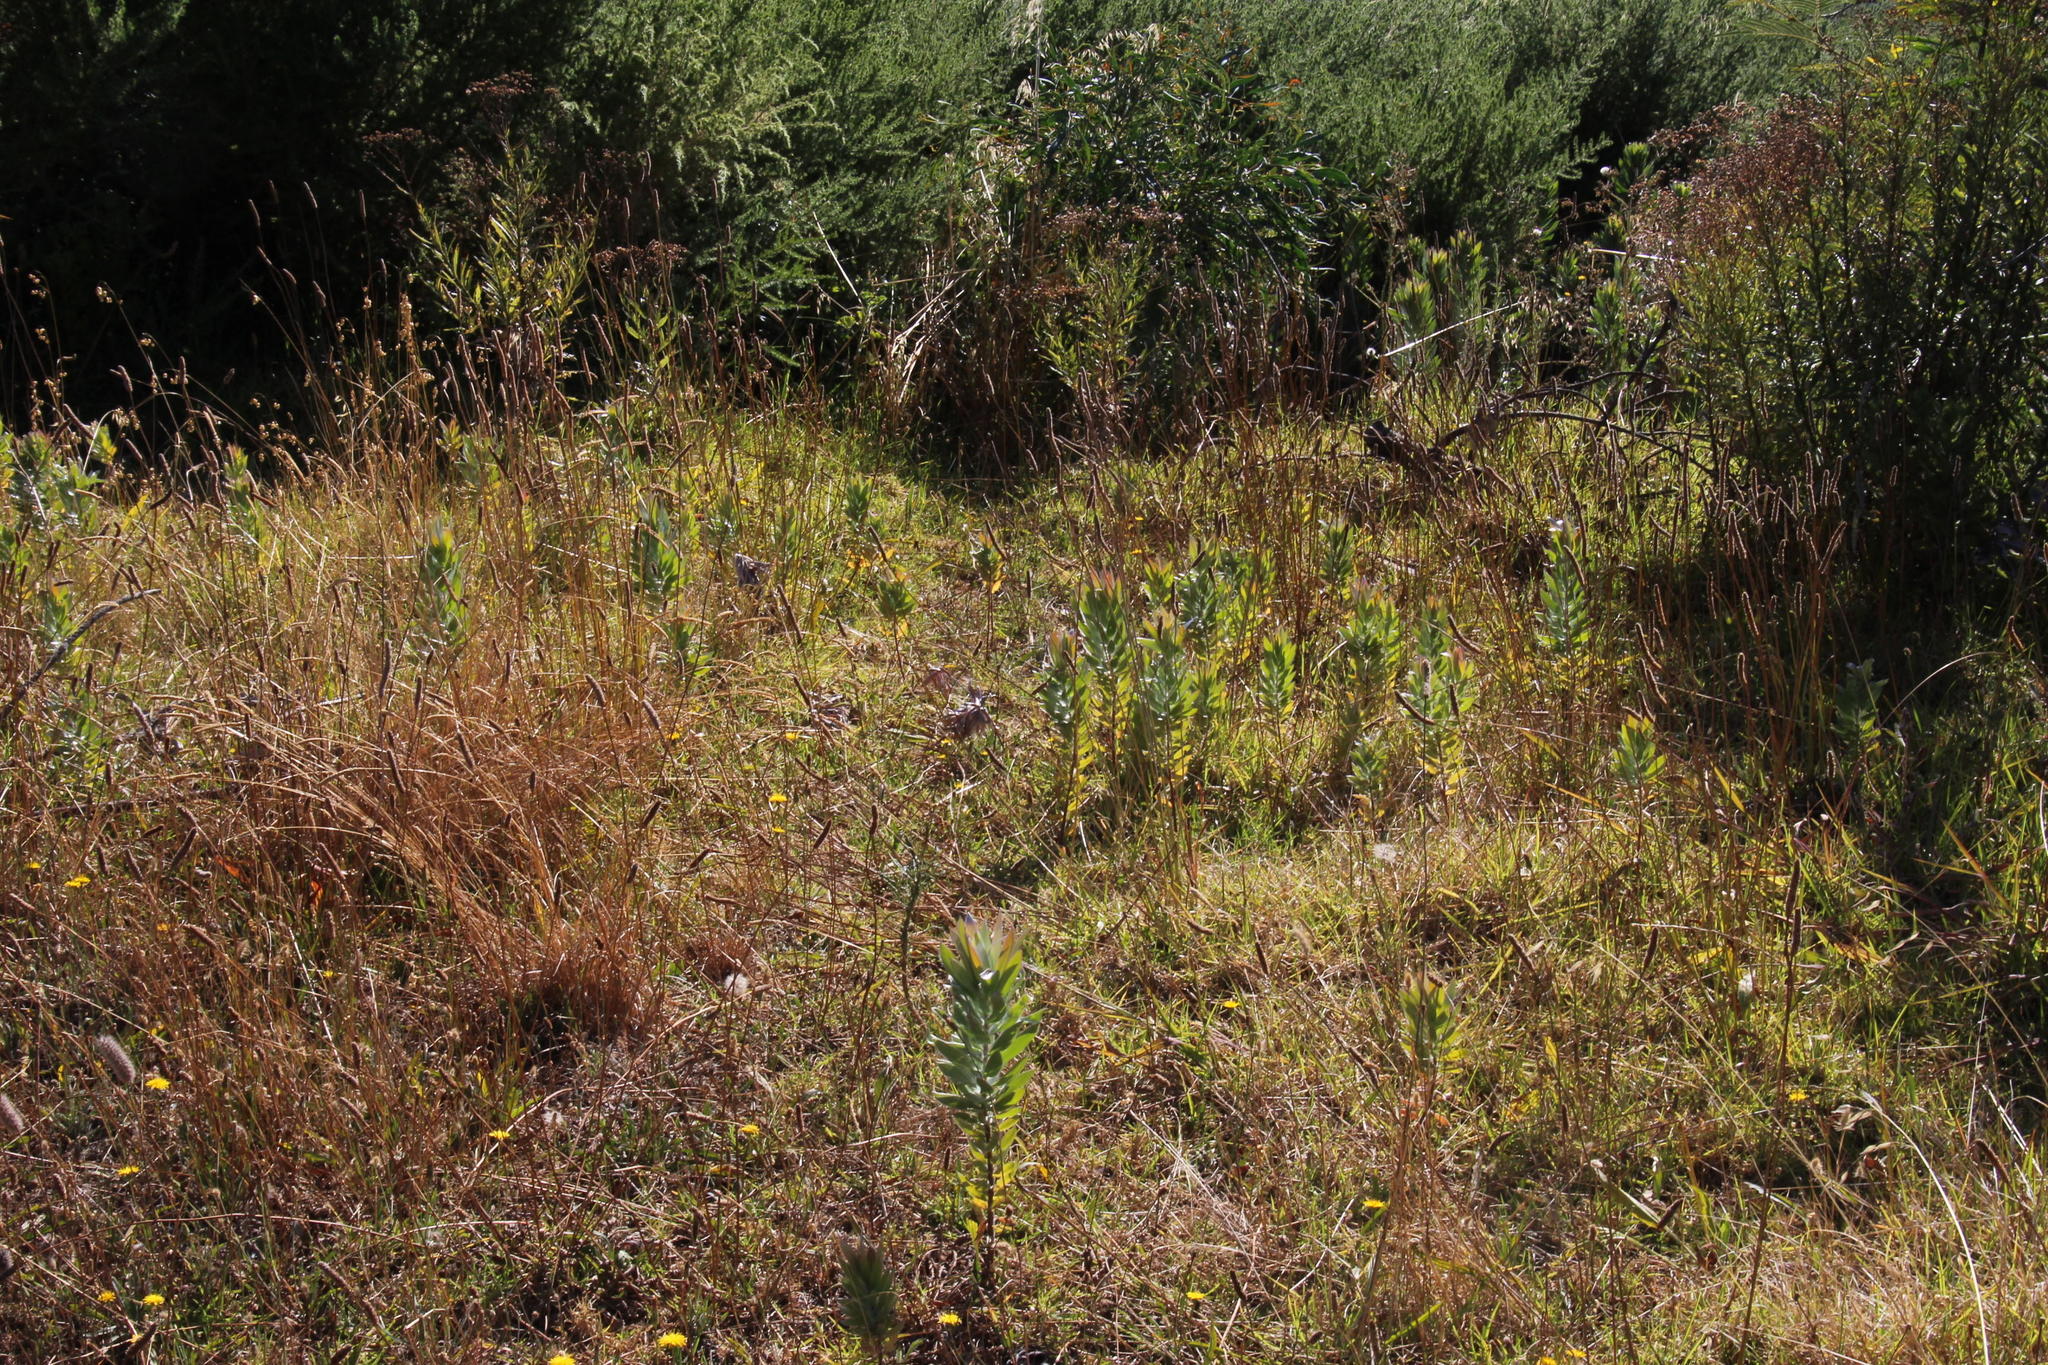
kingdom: Plantae
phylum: Tracheophyta
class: Magnoliopsida
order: Proteales
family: Proteaceae
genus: Leucadendron
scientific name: Leucadendron argenteum
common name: Cape silver tree
